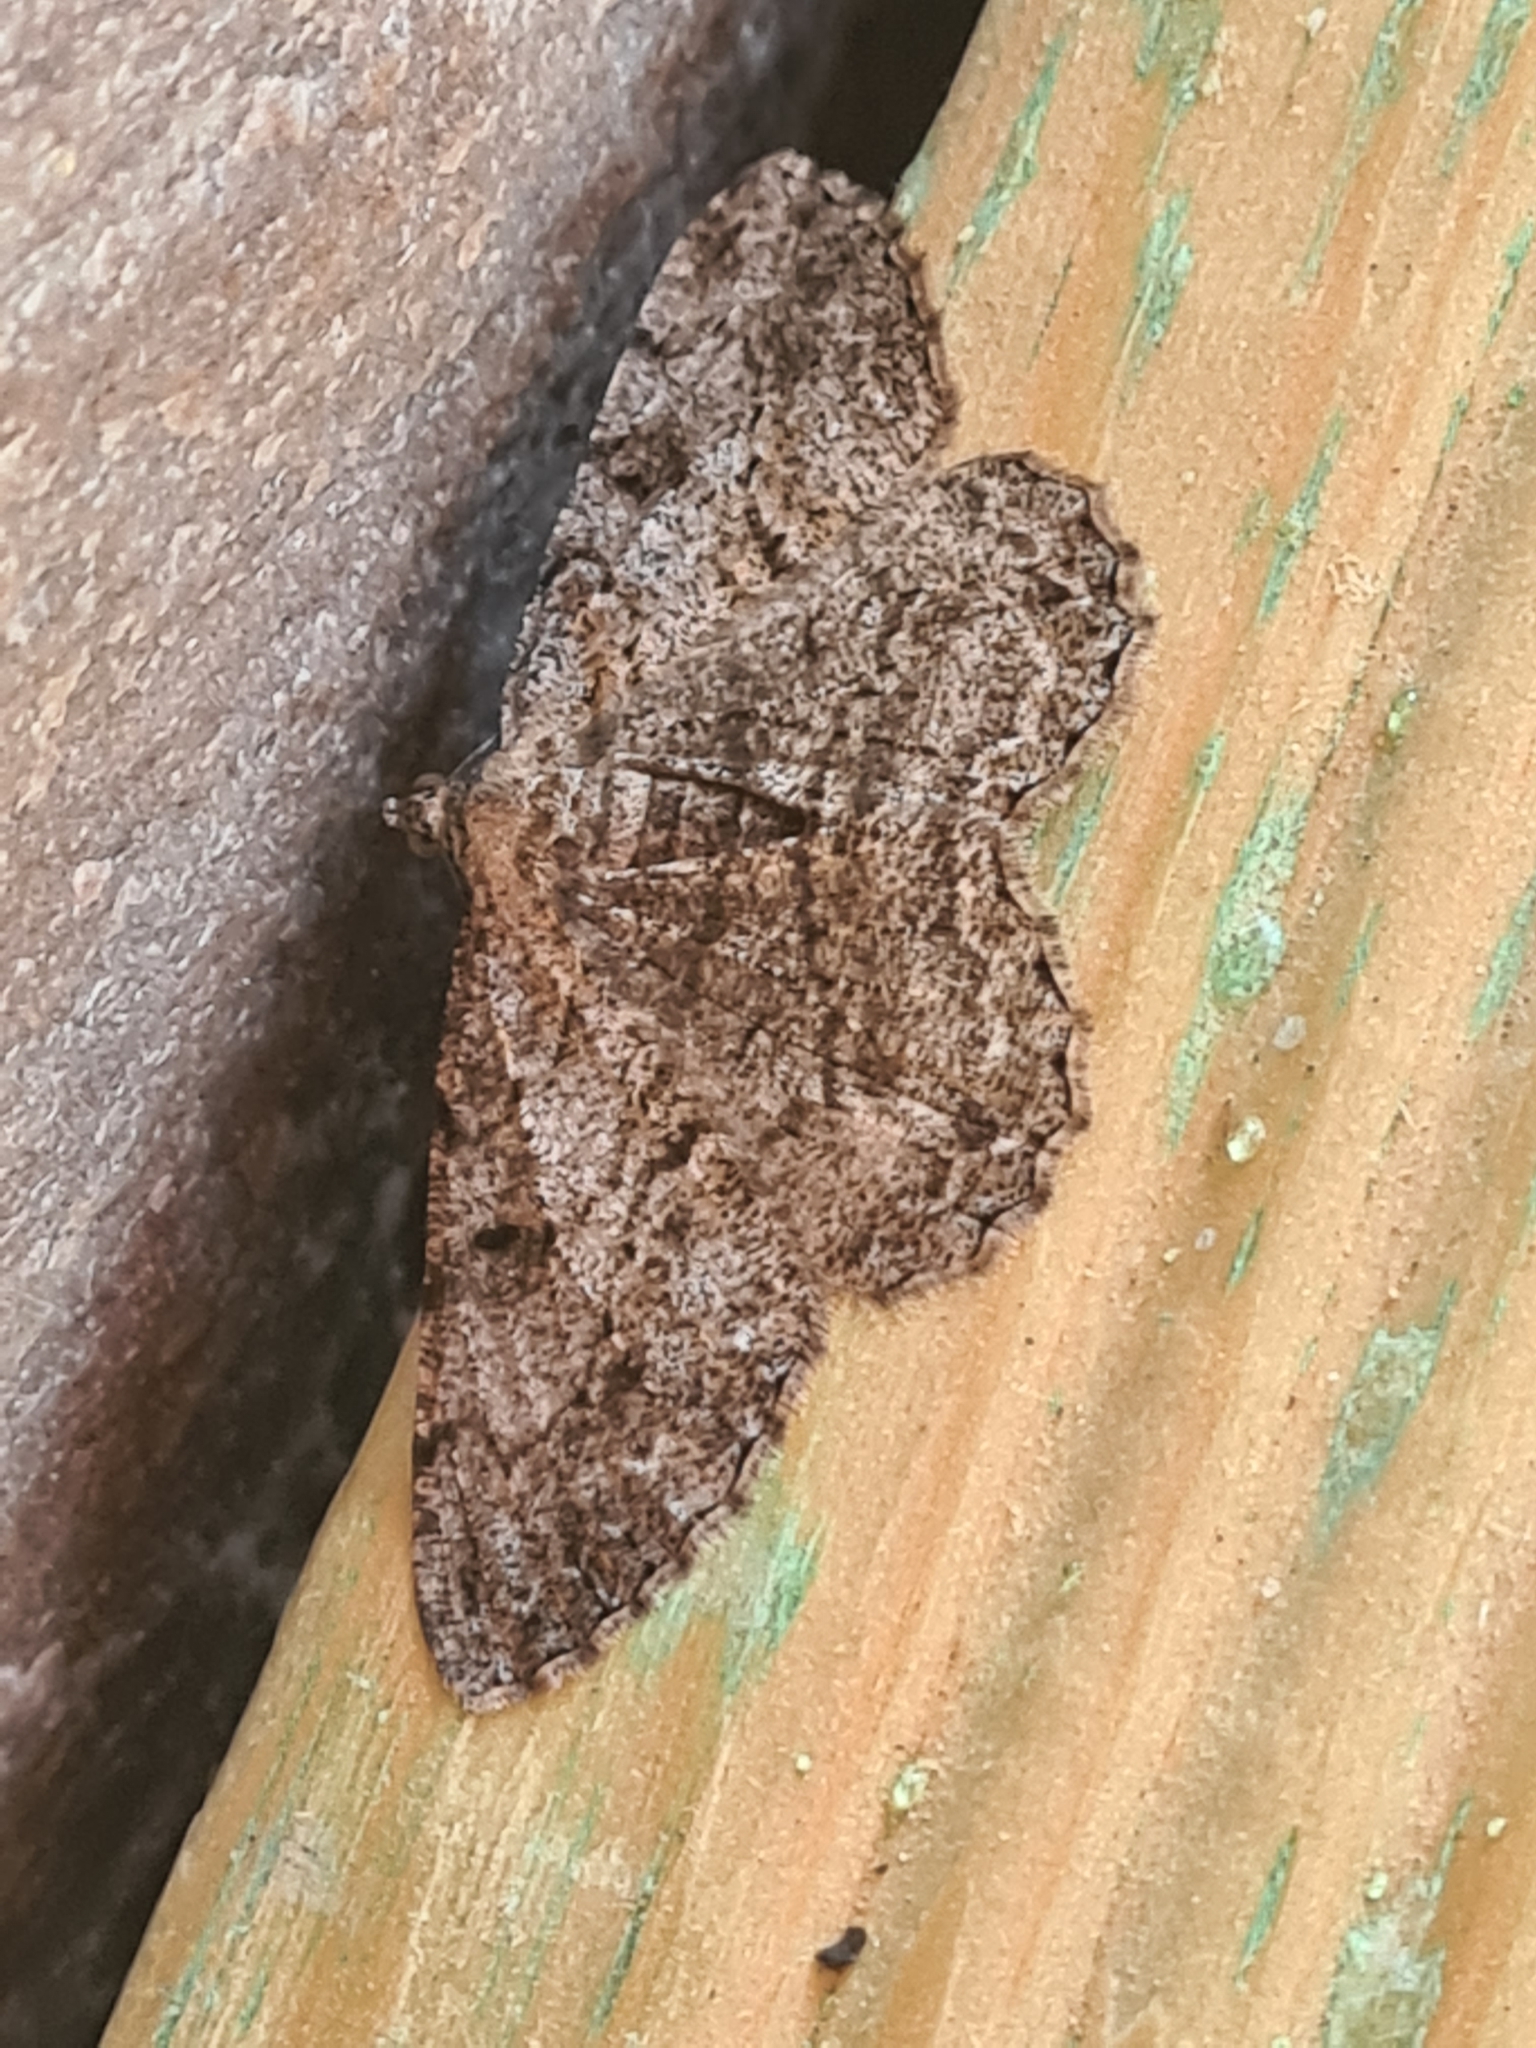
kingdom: Animalia
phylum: Arthropoda
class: Insecta
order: Lepidoptera
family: Geometridae
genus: Peribatodes
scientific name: Peribatodes rhomboidaria
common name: Willow beauty
